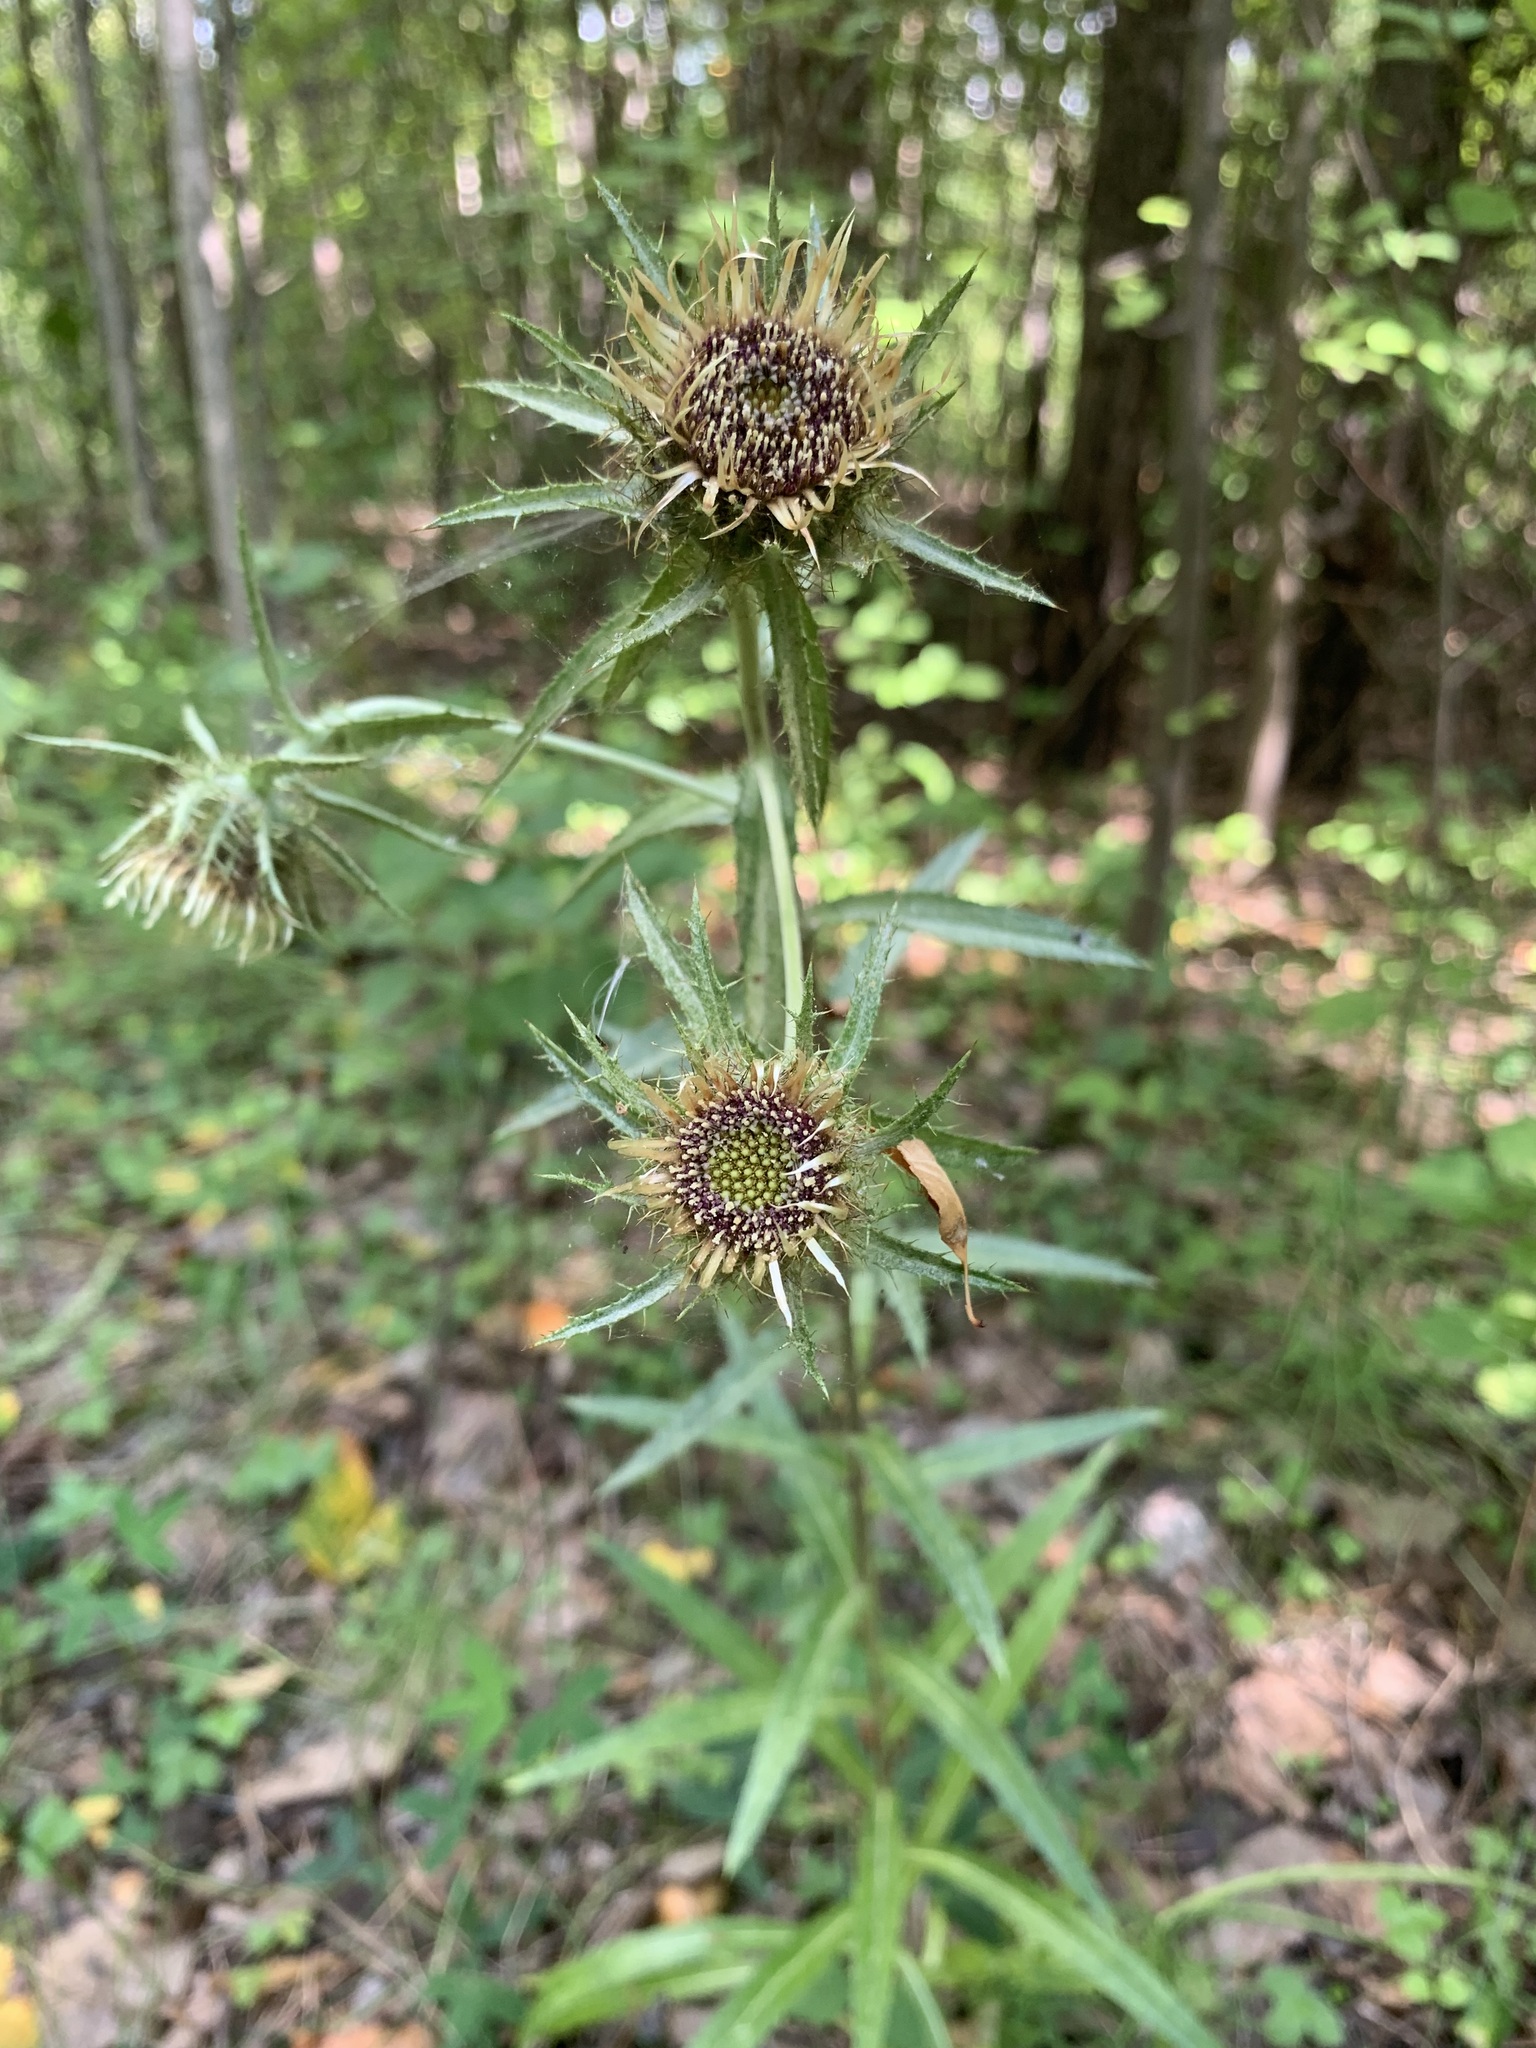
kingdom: Plantae
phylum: Tracheophyta
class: Magnoliopsida
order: Asterales
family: Asteraceae
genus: Carlina
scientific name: Carlina biebersteinii
